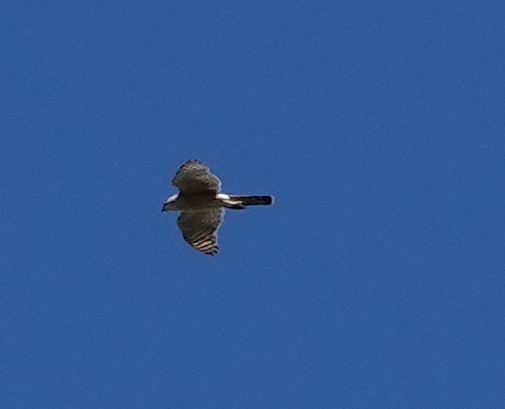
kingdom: Animalia
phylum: Chordata
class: Aves
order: Accipitriformes
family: Accipitridae
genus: Accipiter
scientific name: Accipiter cooperii
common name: Cooper's hawk
